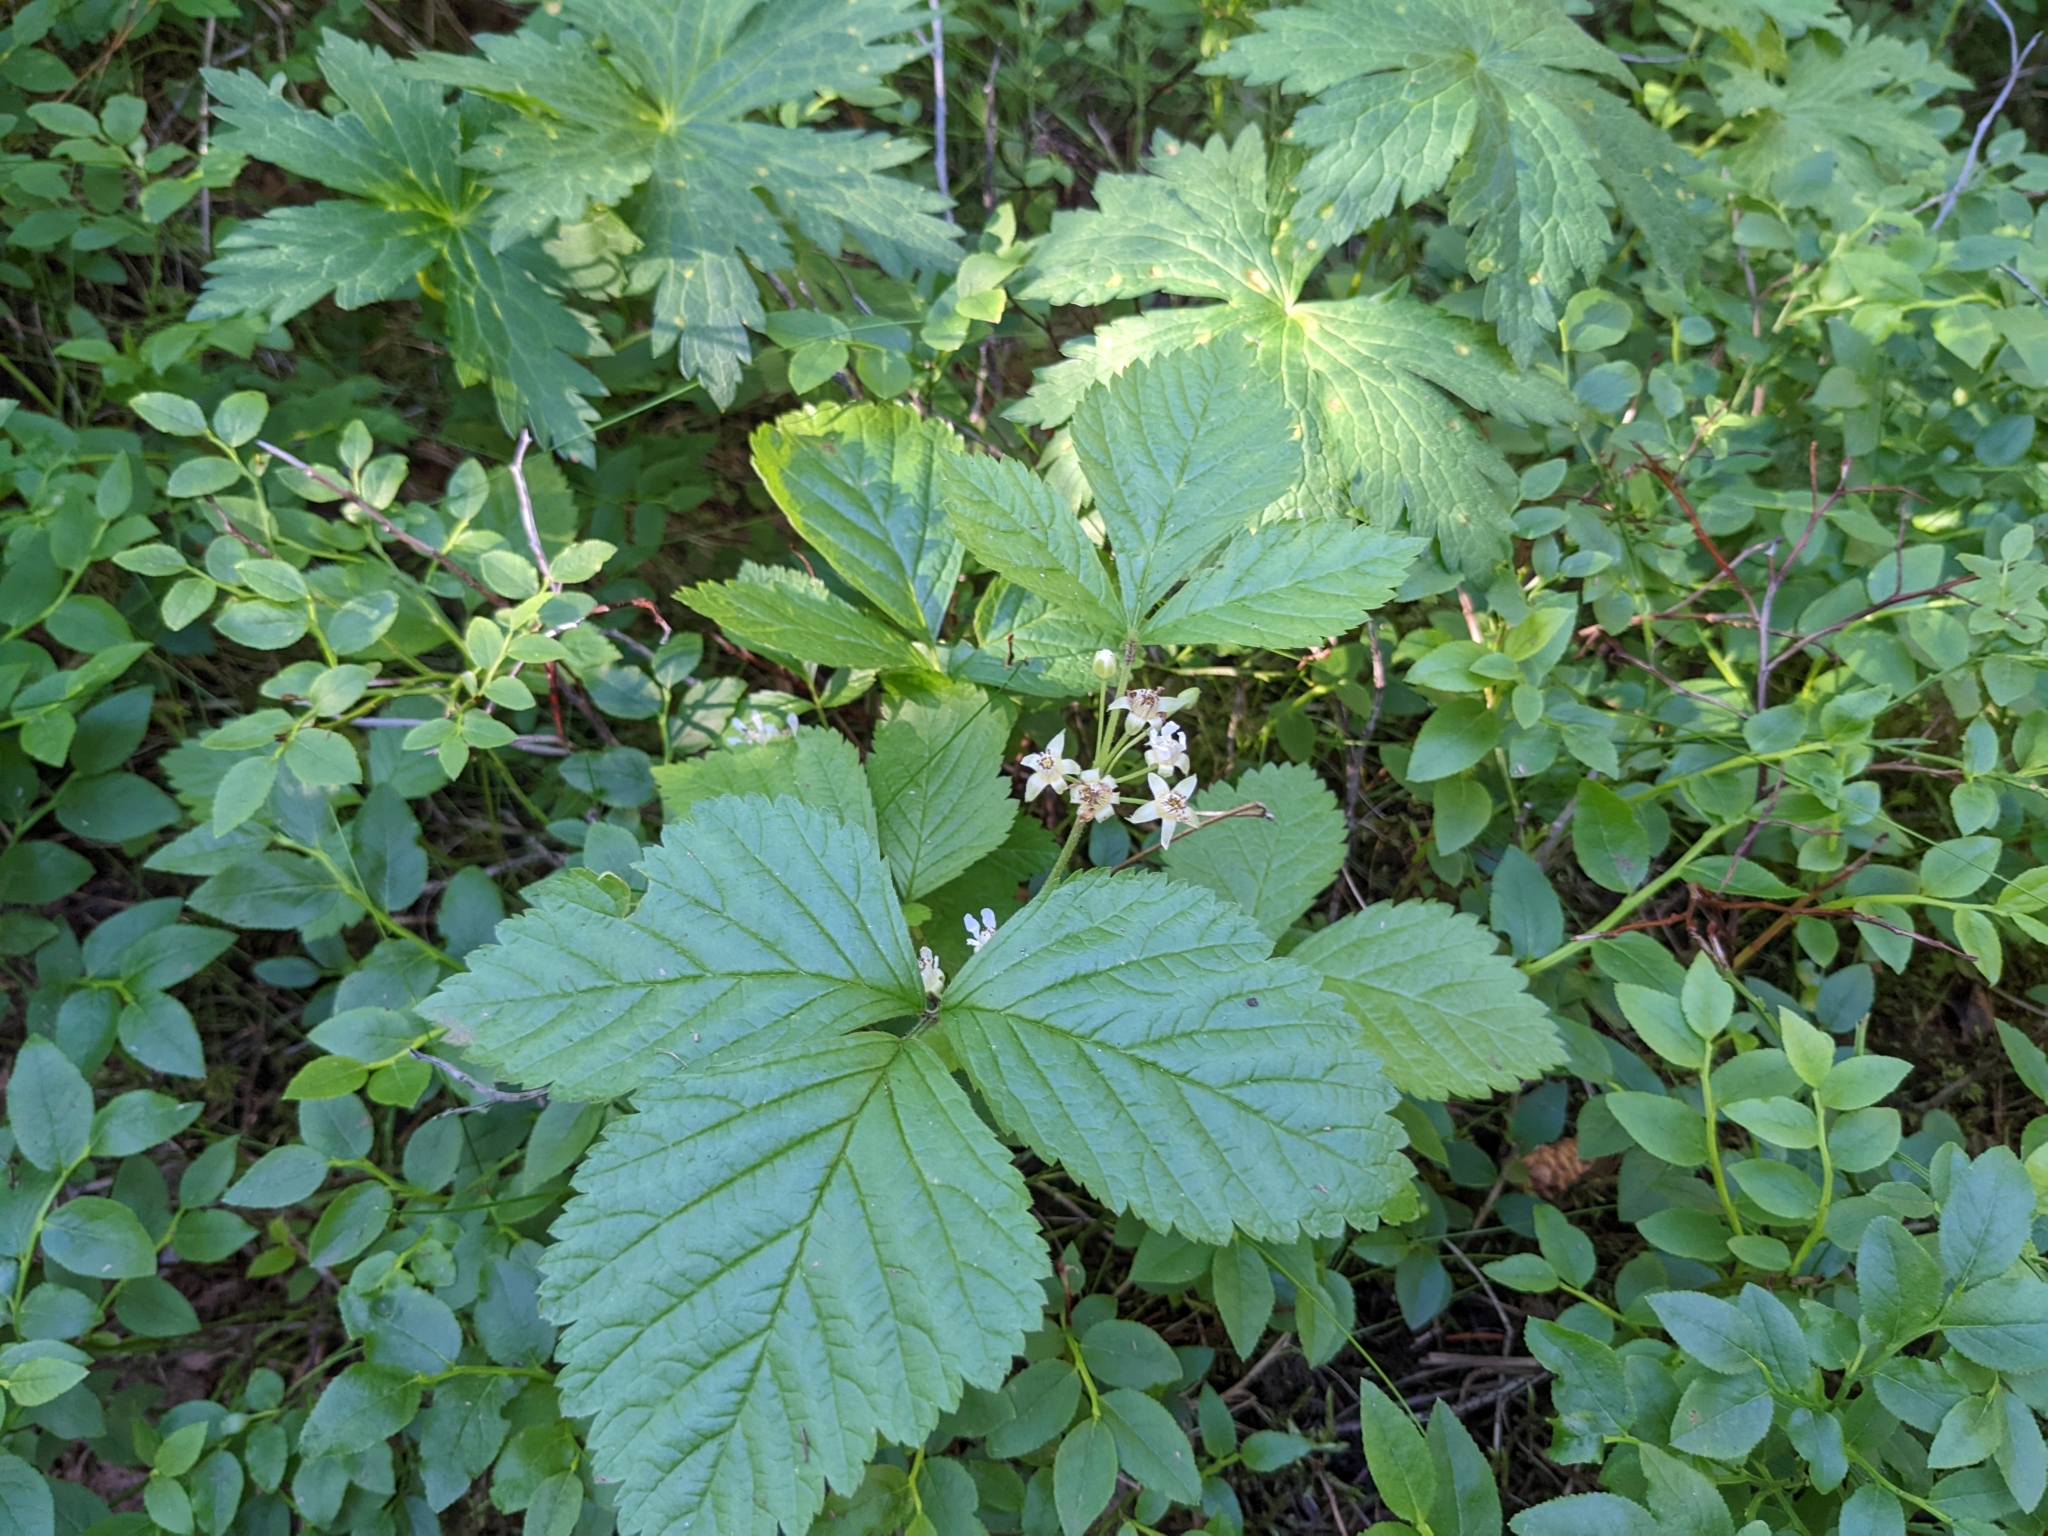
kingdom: Plantae
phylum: Tracheophyta
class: Magnoliopsida
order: Rosales
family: Rosaceae
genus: Rubus
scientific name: Rubus saxatilis
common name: Stone bramble
